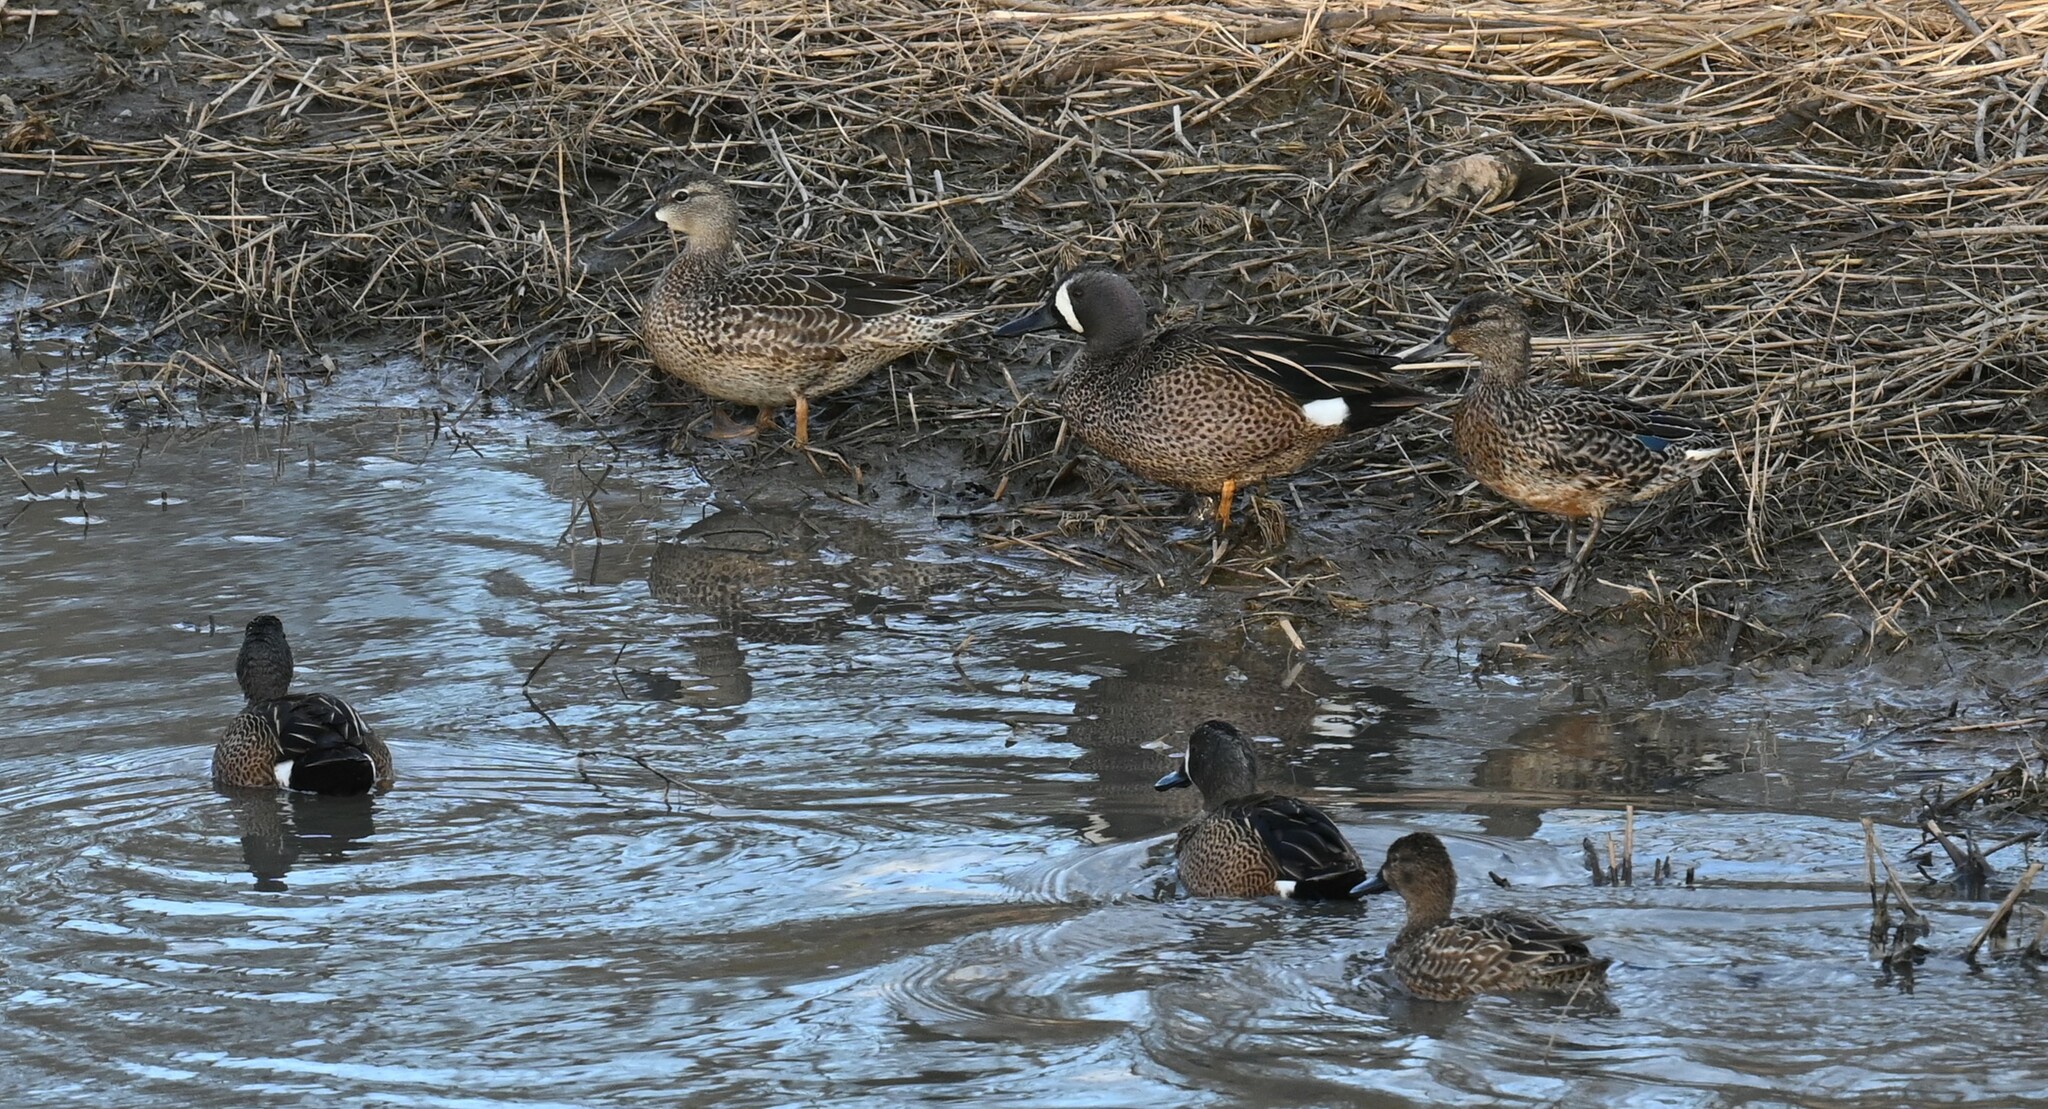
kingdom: Animalia
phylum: Chordata
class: Aves
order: Anseriformes
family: Anatidae
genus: Spatula
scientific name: Spatula discors
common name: Blue-winged teal
